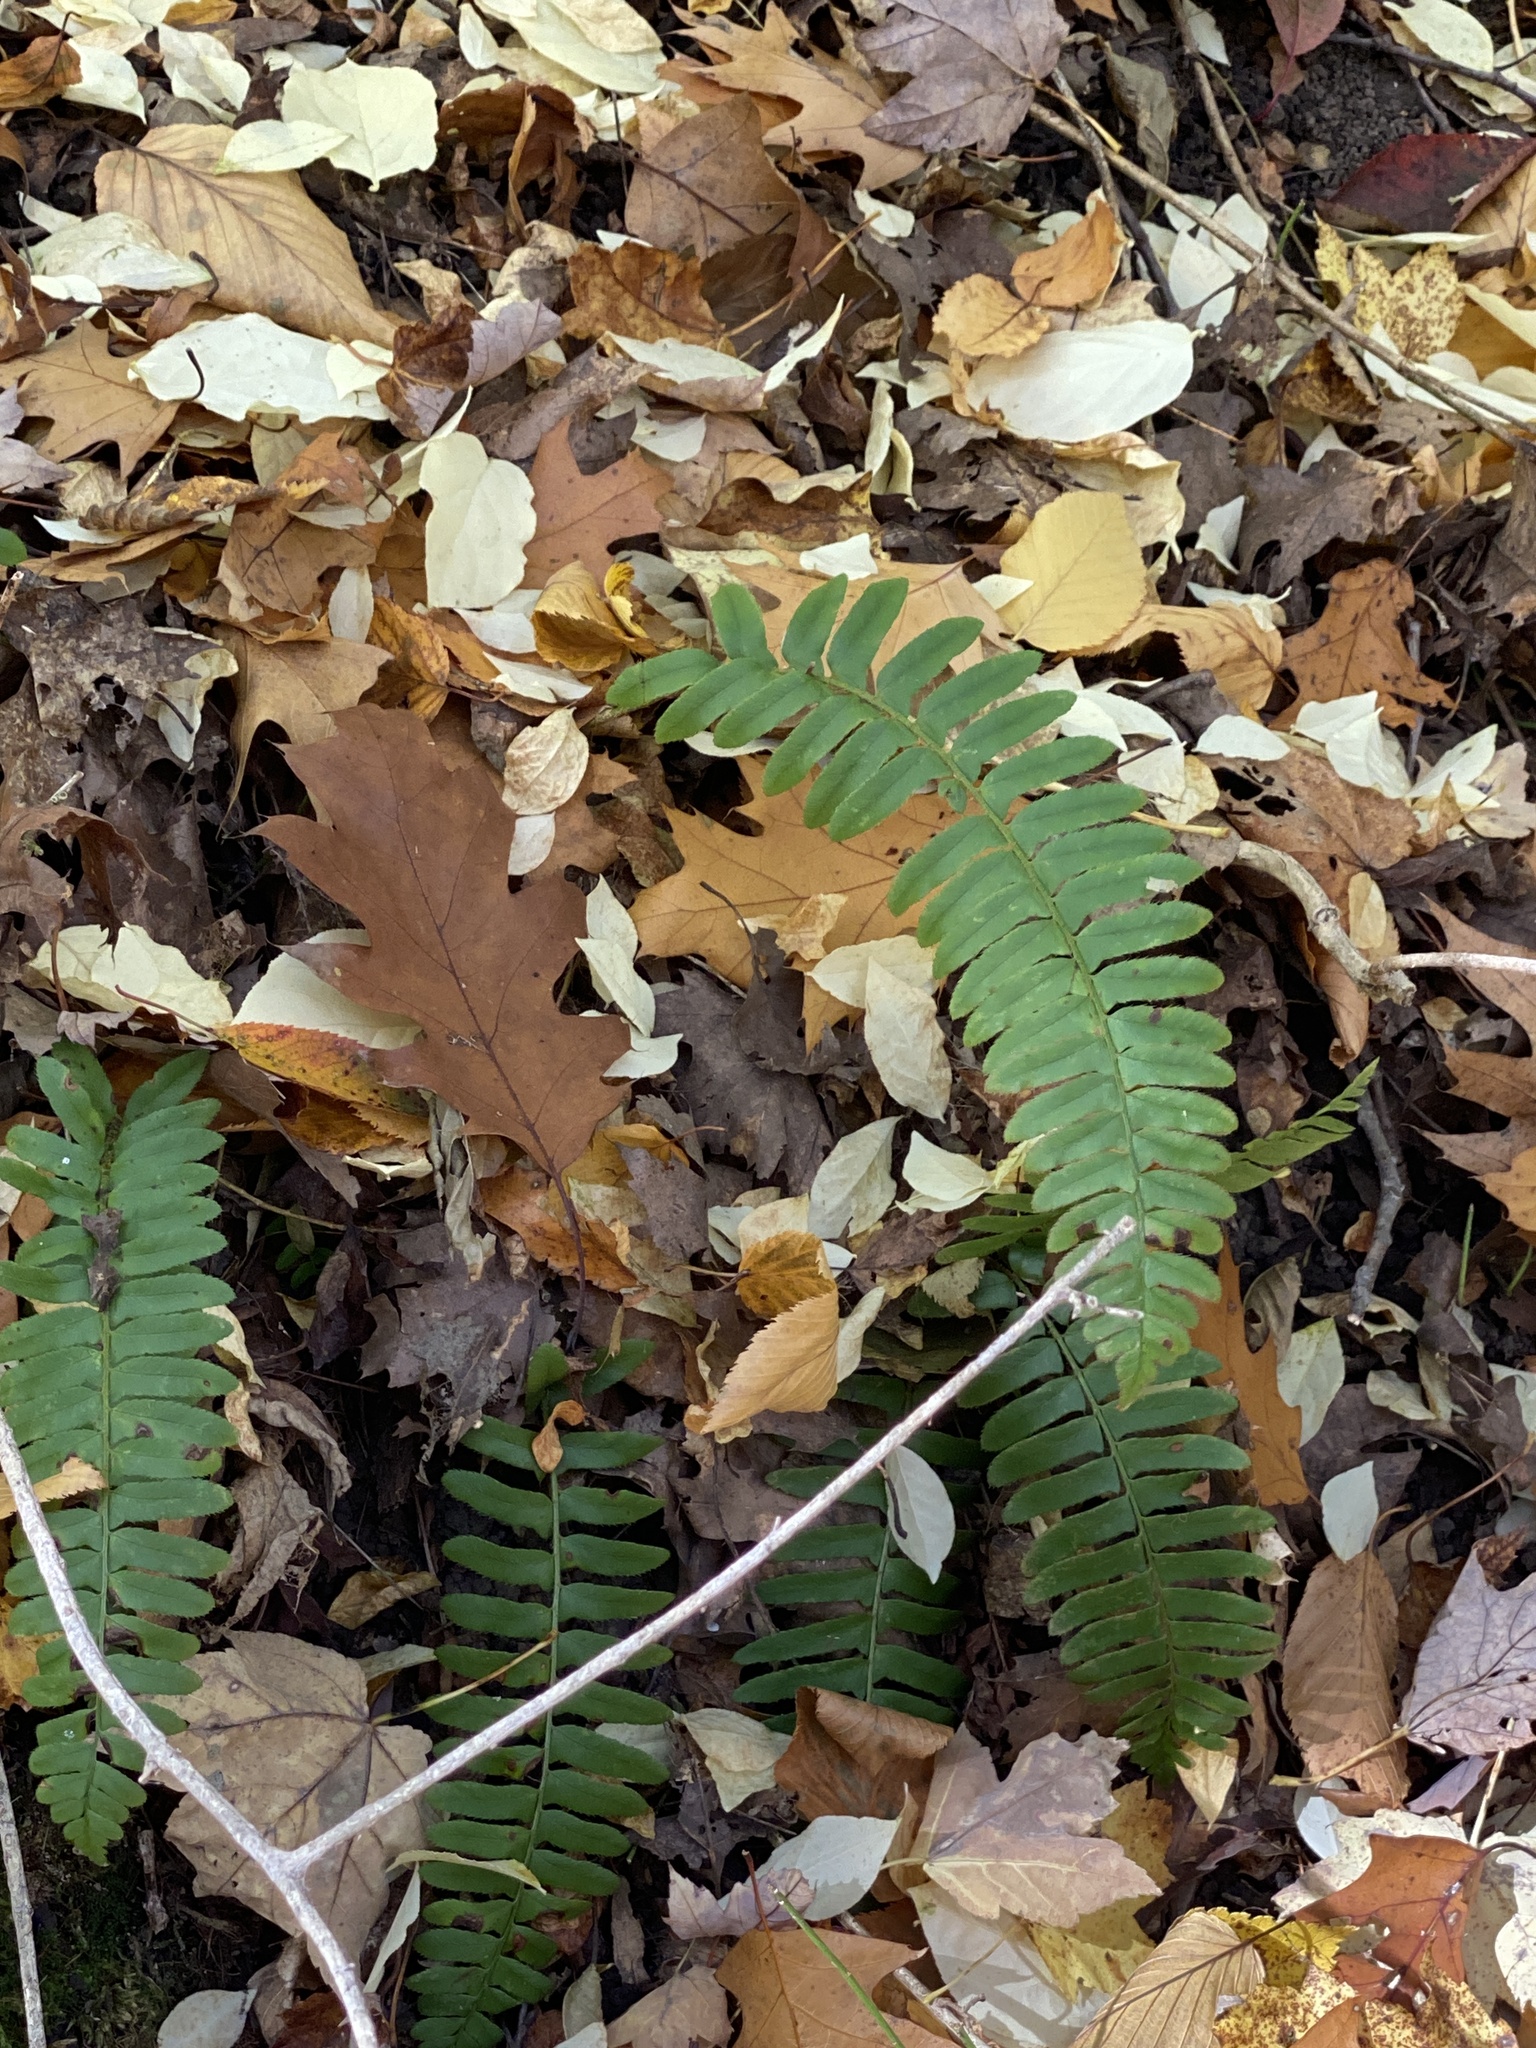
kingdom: Plantae
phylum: Tracheophyta
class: Polypodiopsida
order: Polypodiales
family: Dryopteridaceae
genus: Polystichum
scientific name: Polystichum acrostichoides
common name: Christmas fern
